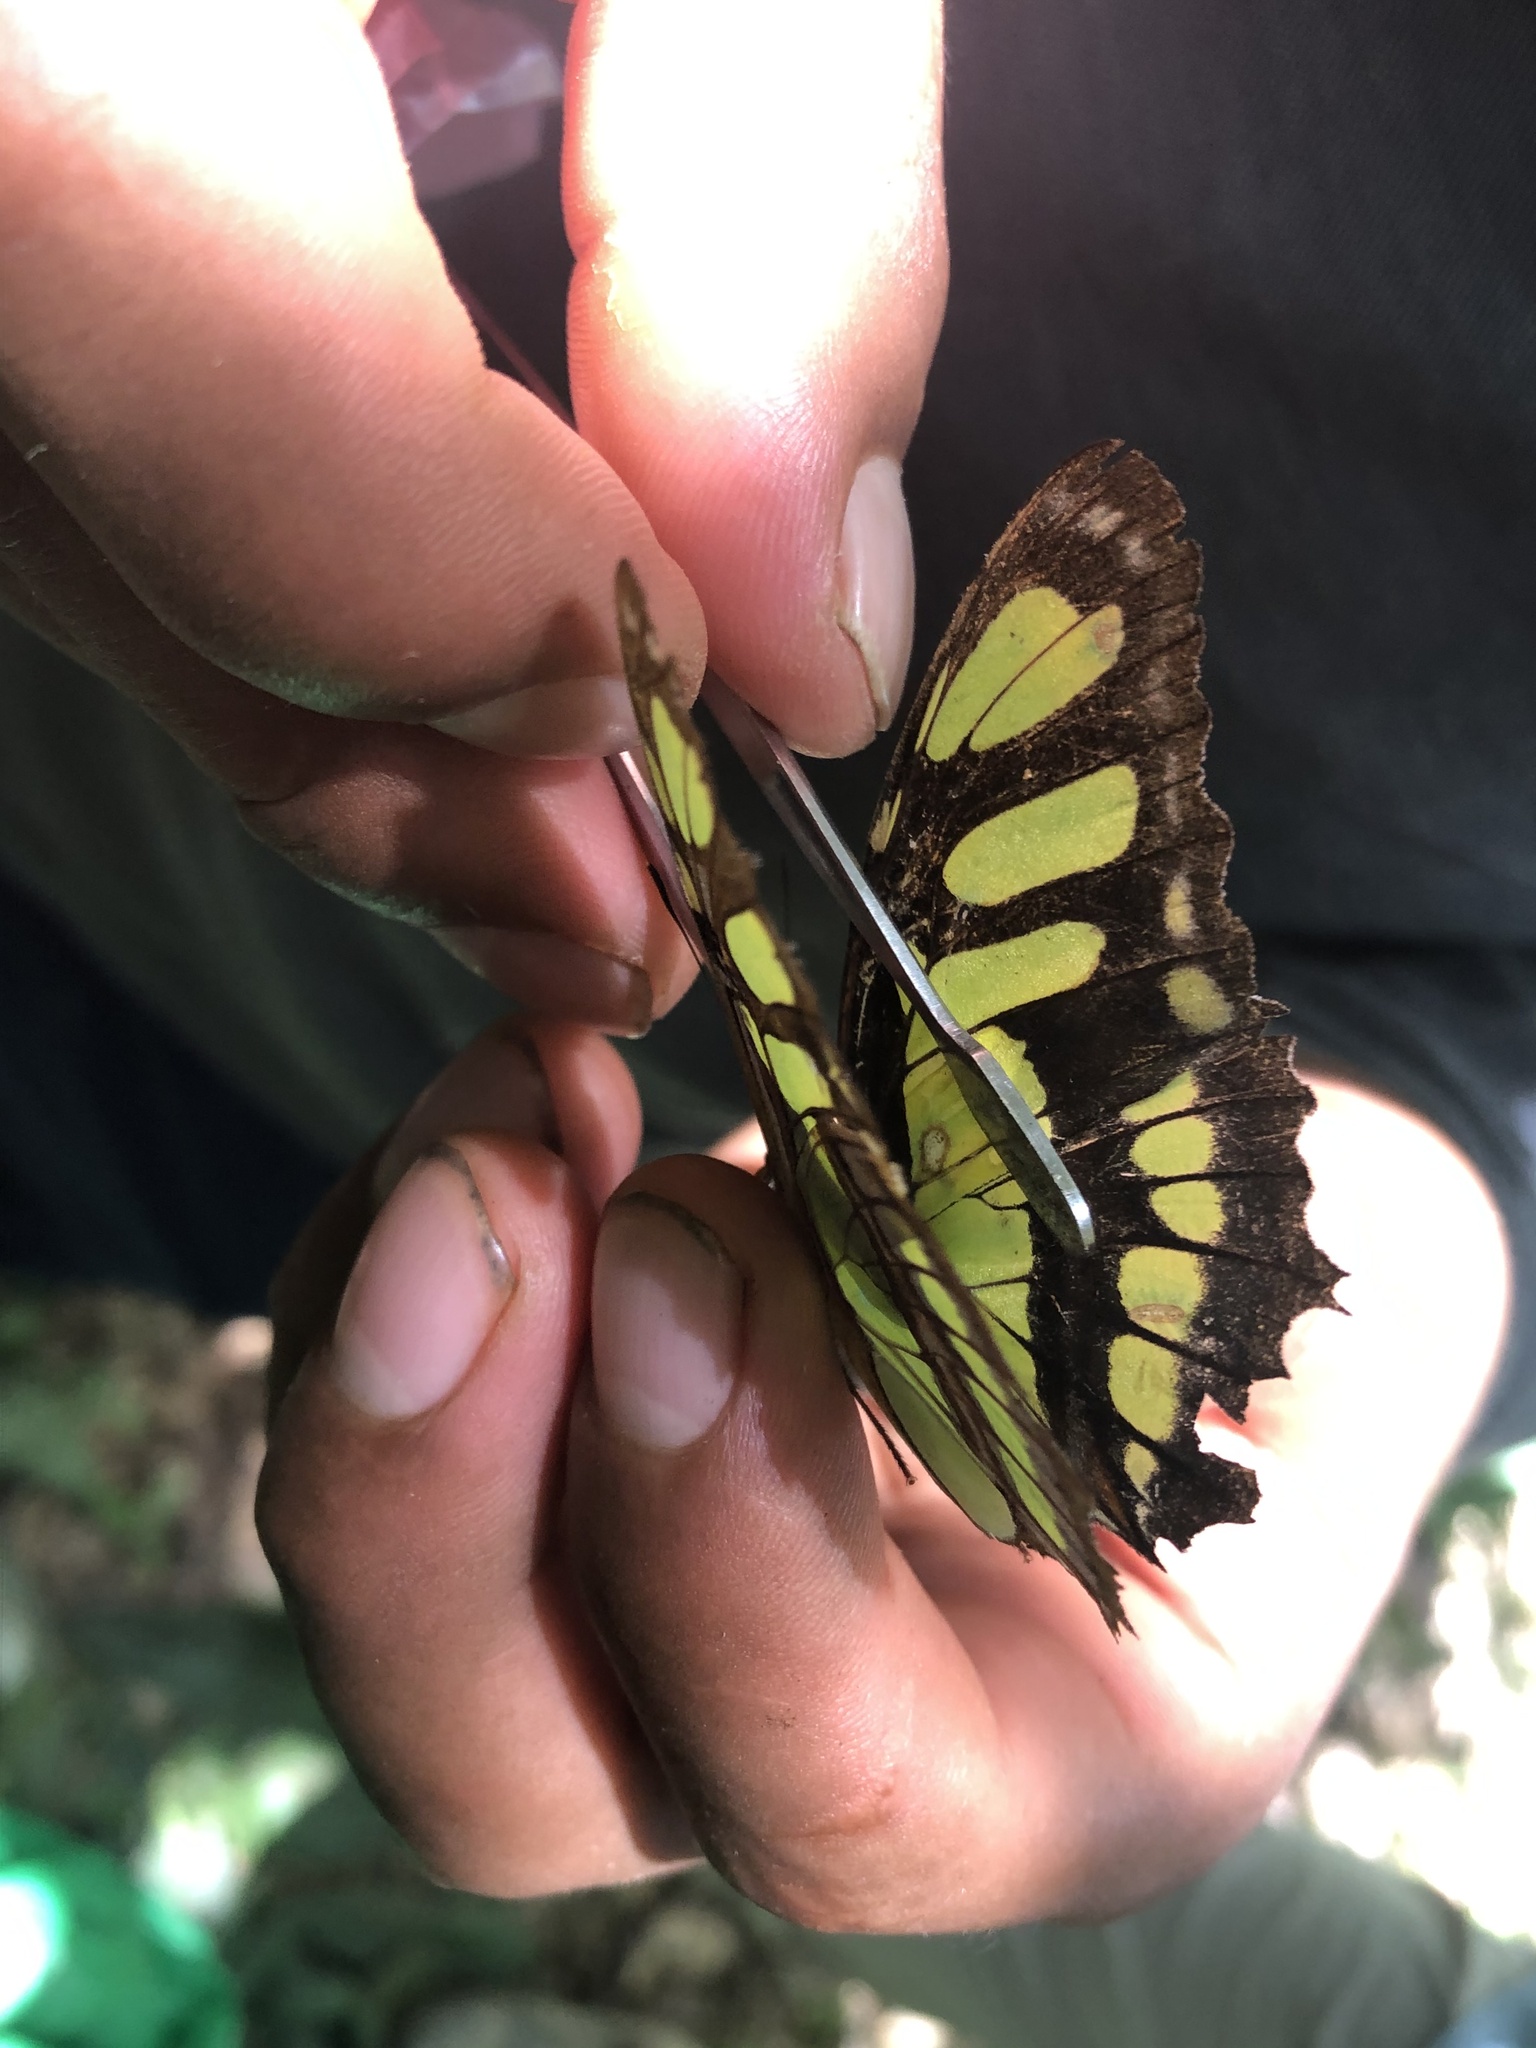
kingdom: Animalia
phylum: Arthropoda
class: Insecta
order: Lepidoptera
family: Nymphalidae
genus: Siproeta
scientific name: Siproeta stelenes
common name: Malachite
